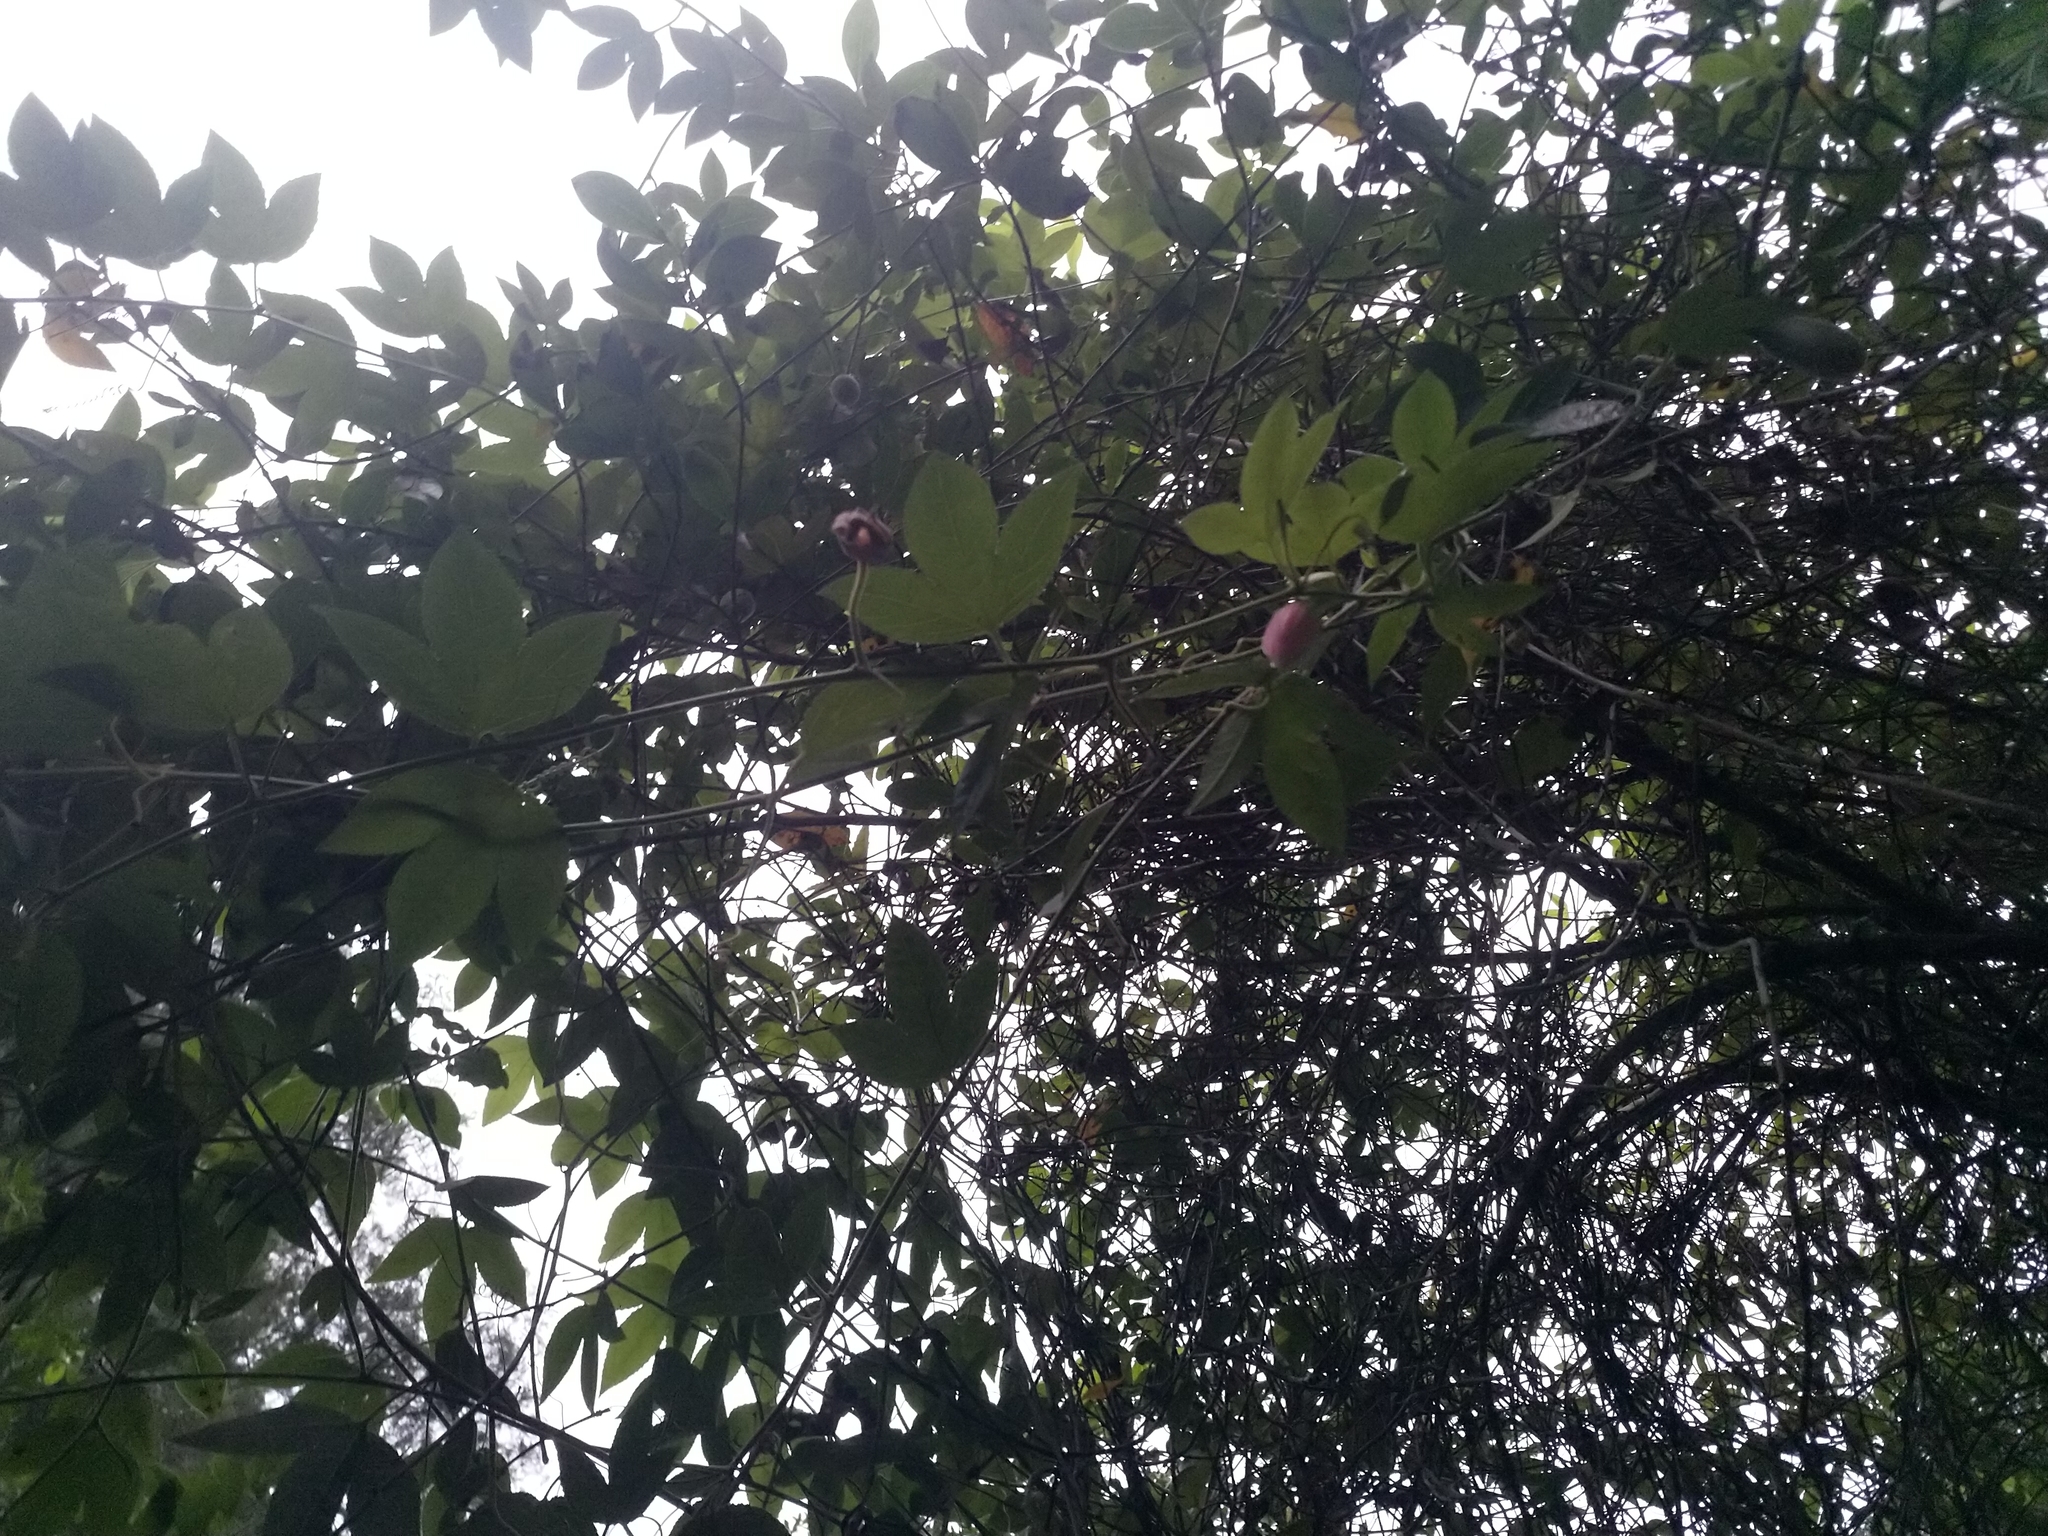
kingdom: Plantae
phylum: Tracheophyta
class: Magnoliopsida
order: Malpighiales
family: Passifloraceae
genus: Passiflora
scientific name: Passiflora tarminiana
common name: Banana poka
